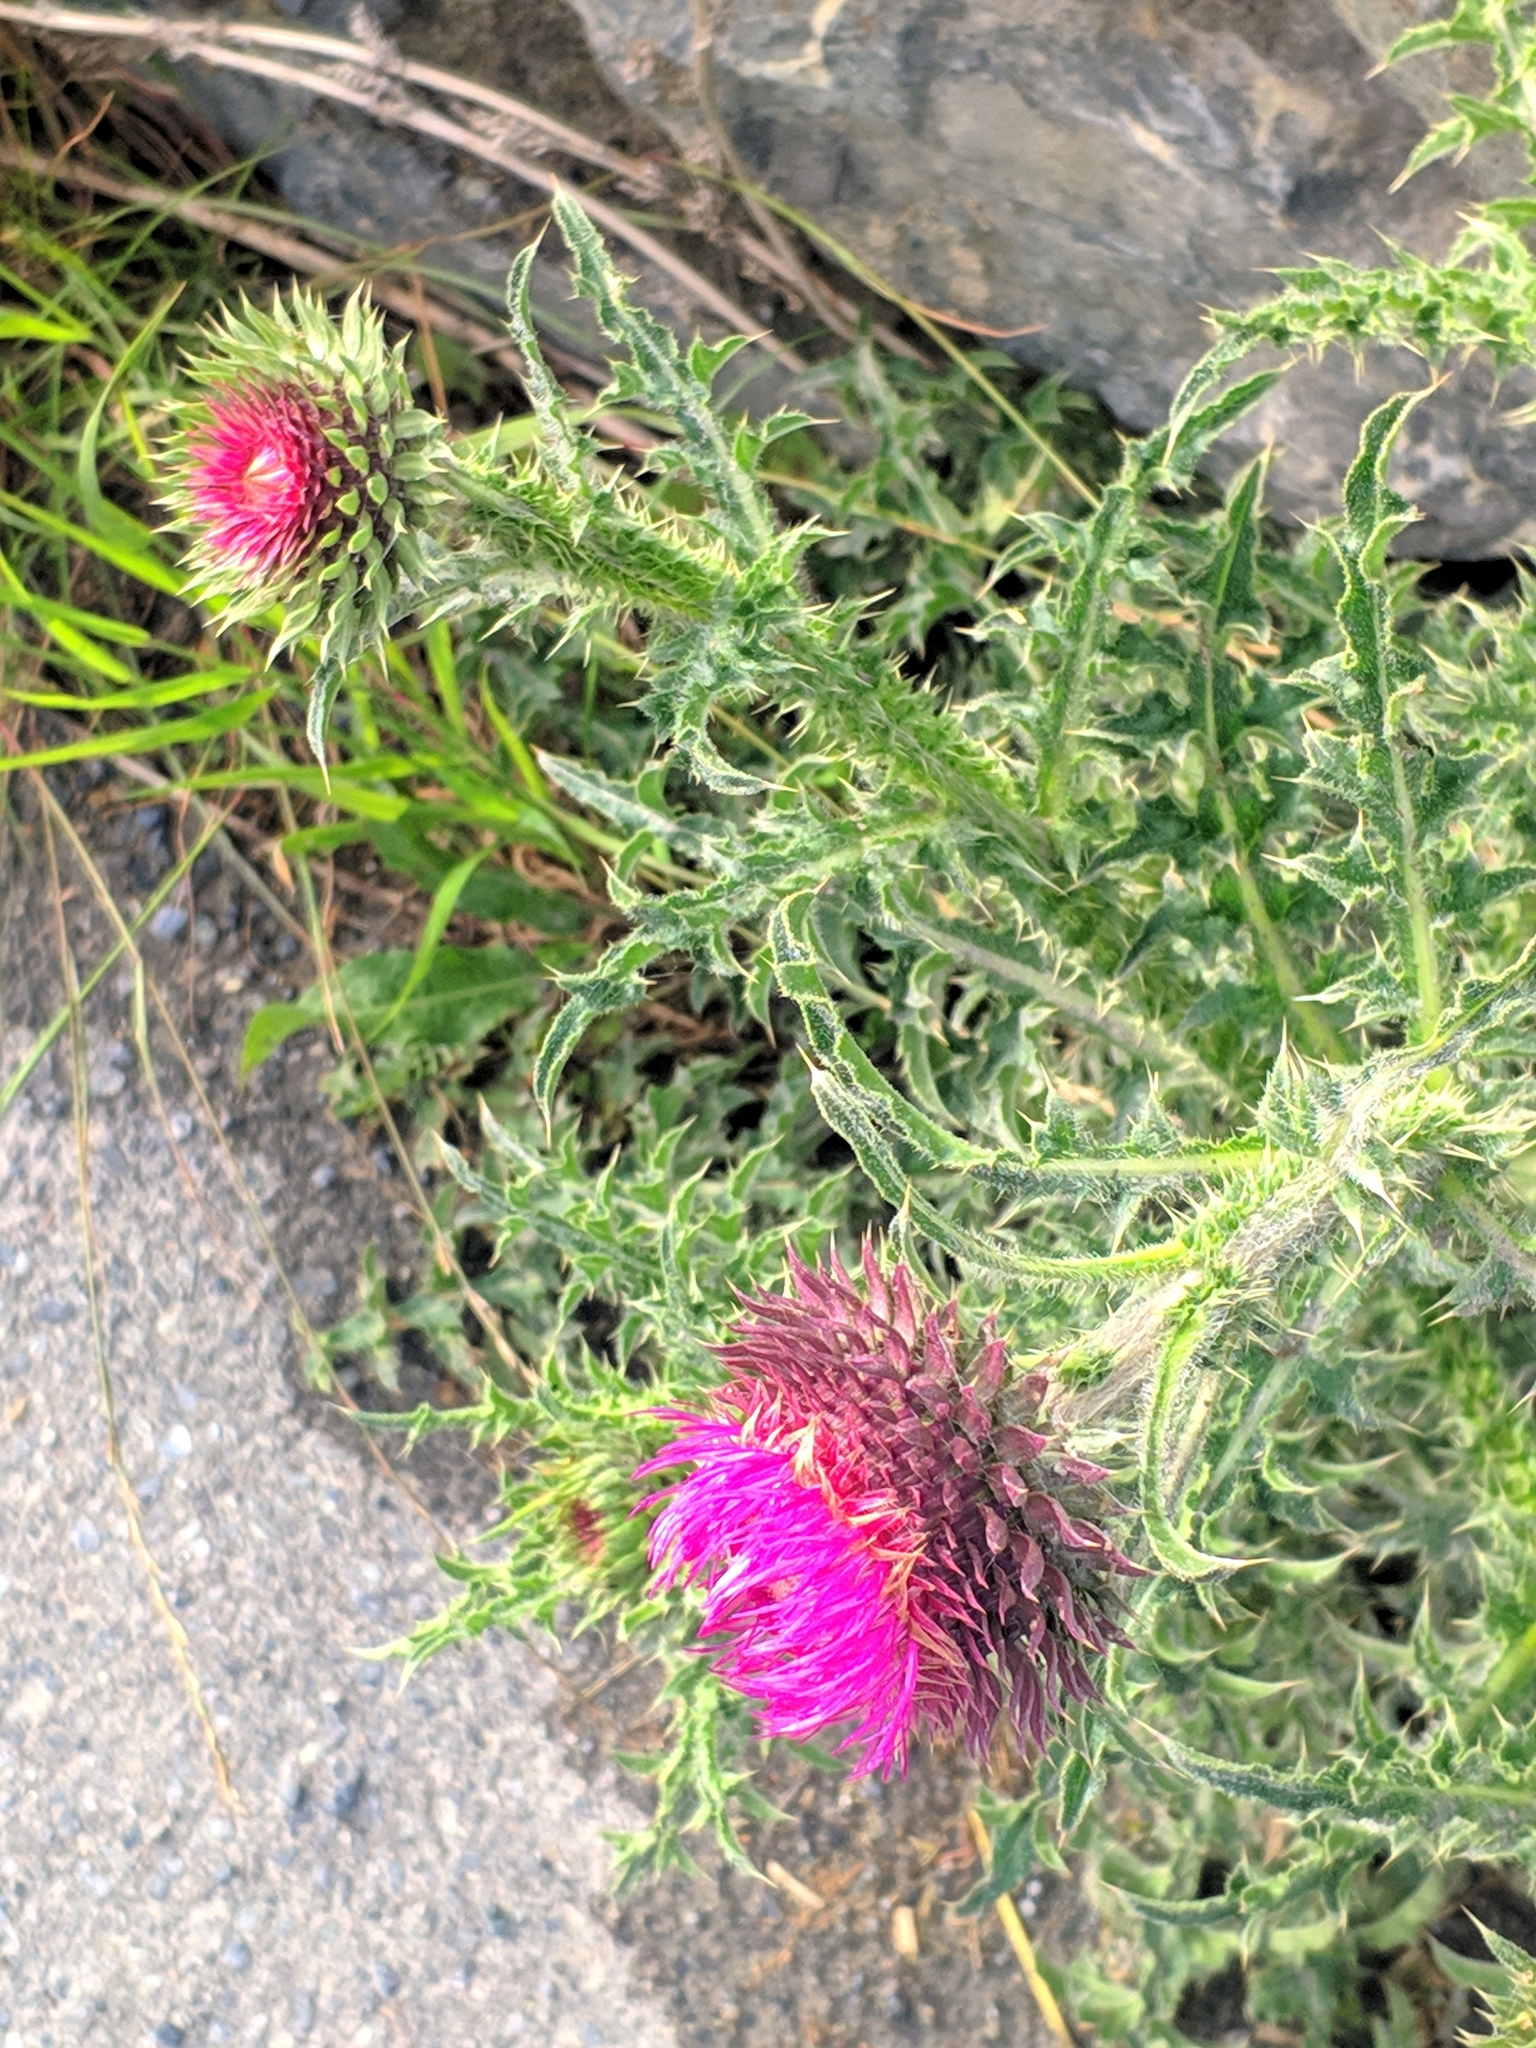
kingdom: Plantae
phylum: Tracheophyta
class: Magnoliopsida
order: Asterales
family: Asteraceae
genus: Carduus
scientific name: Carduus nutans
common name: Musk thistle
